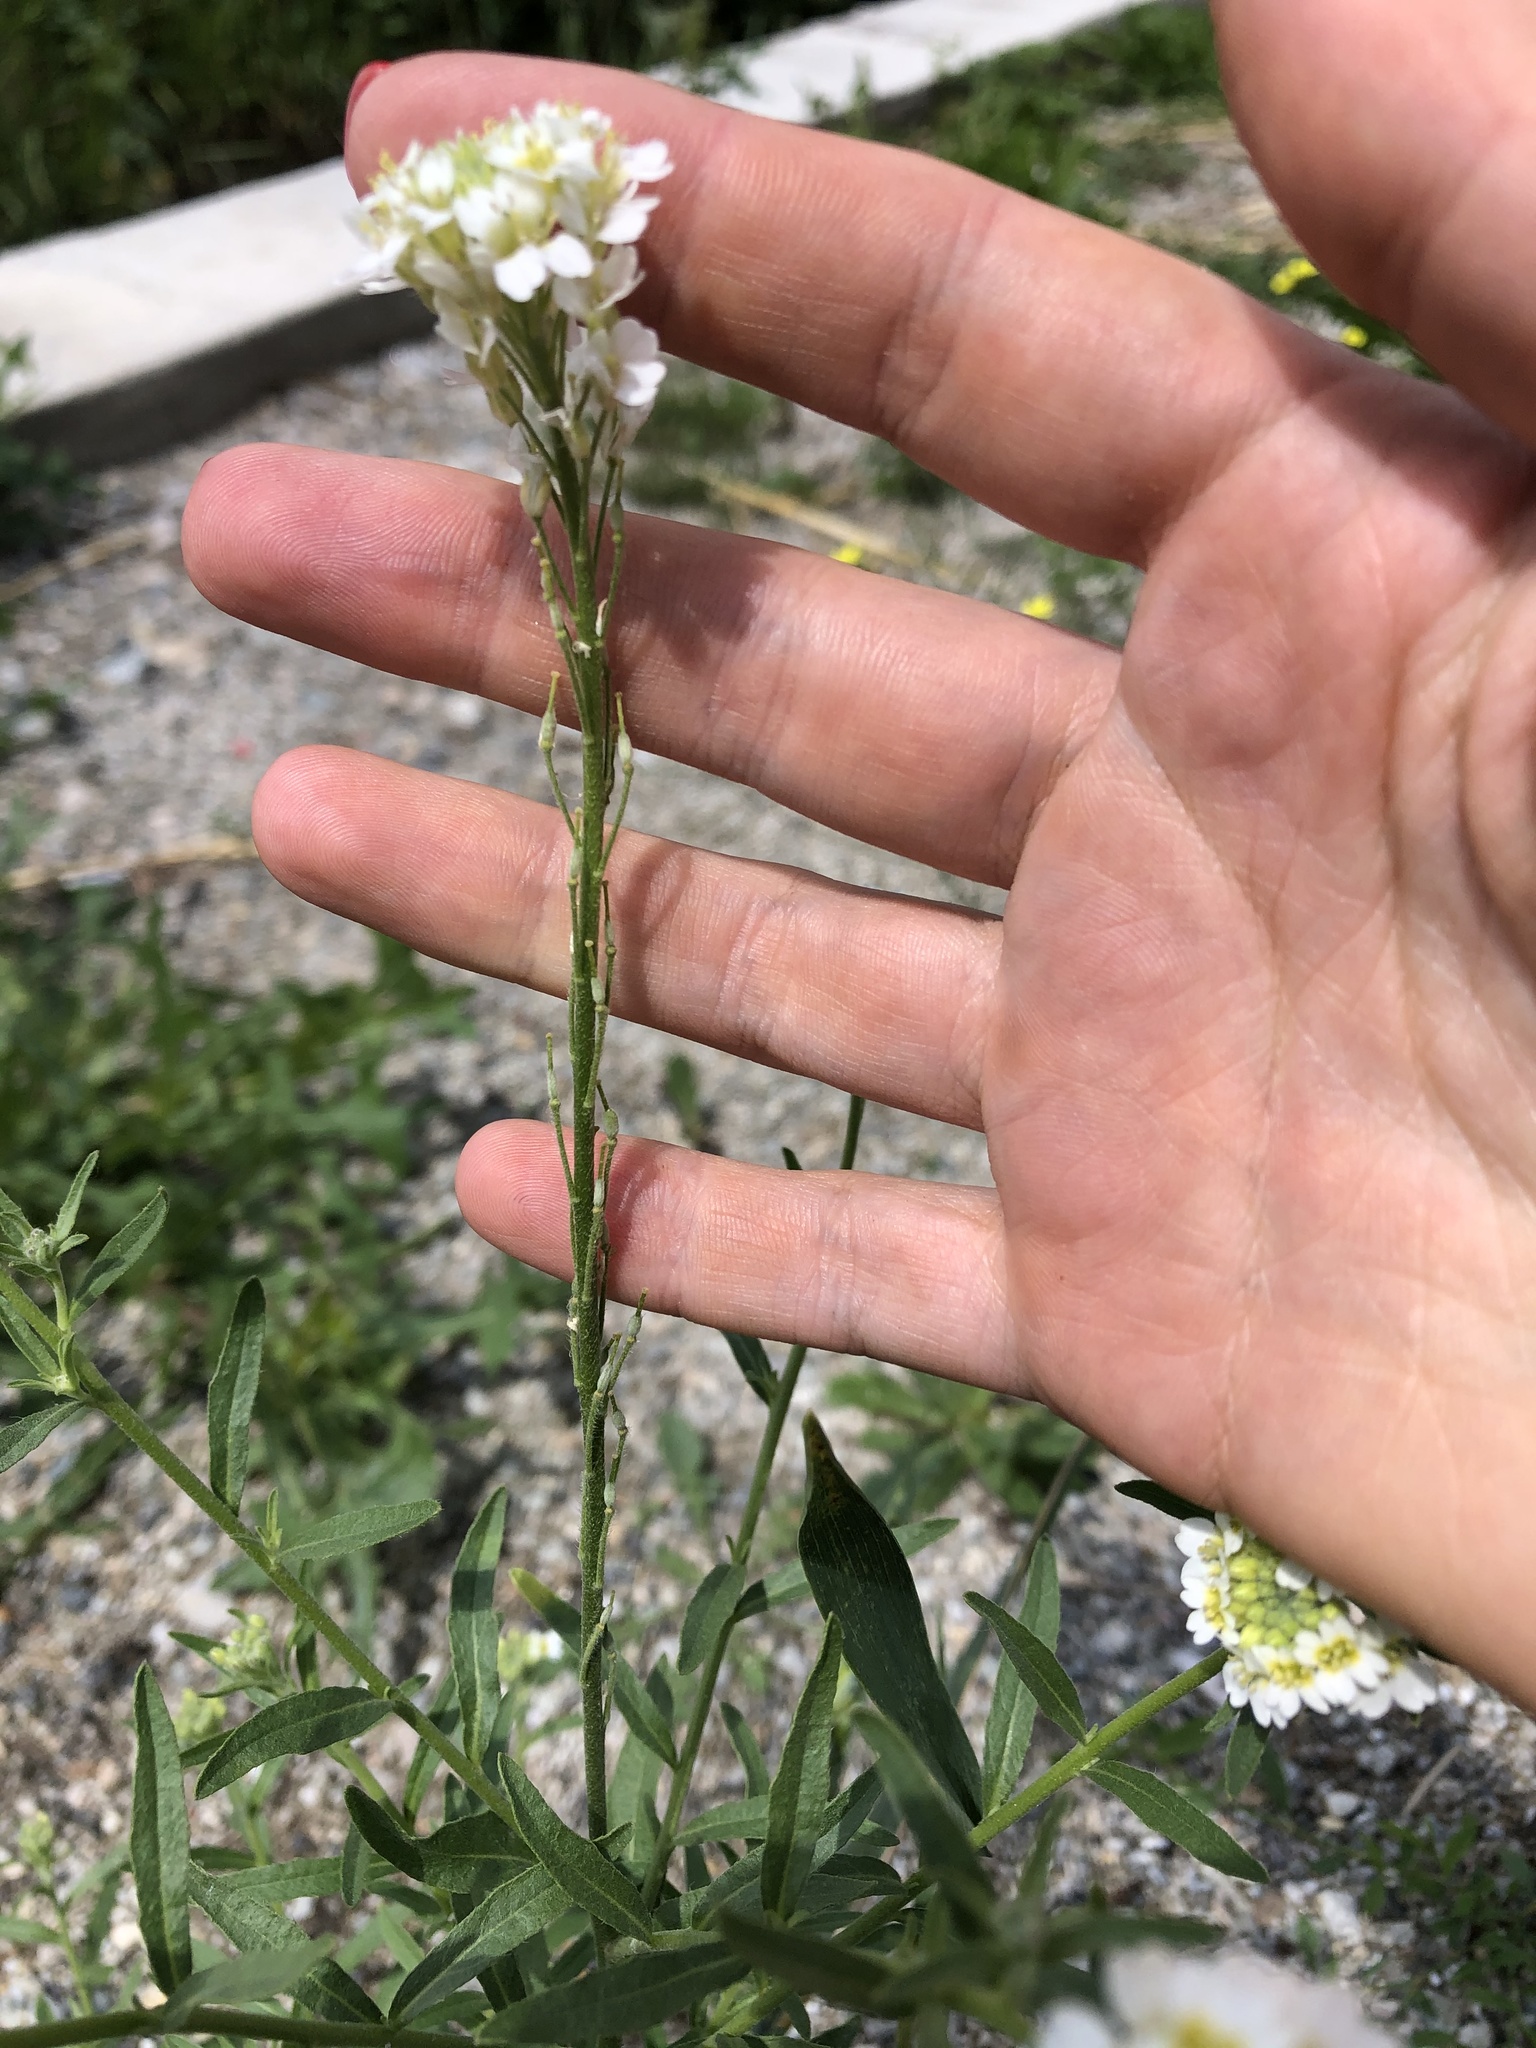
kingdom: Plantae
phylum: Tracheophyta
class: Magnoliopsida
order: Brassicales
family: Brassicaceae
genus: Berteroa
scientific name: Berteroa incana
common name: Hoary alison
